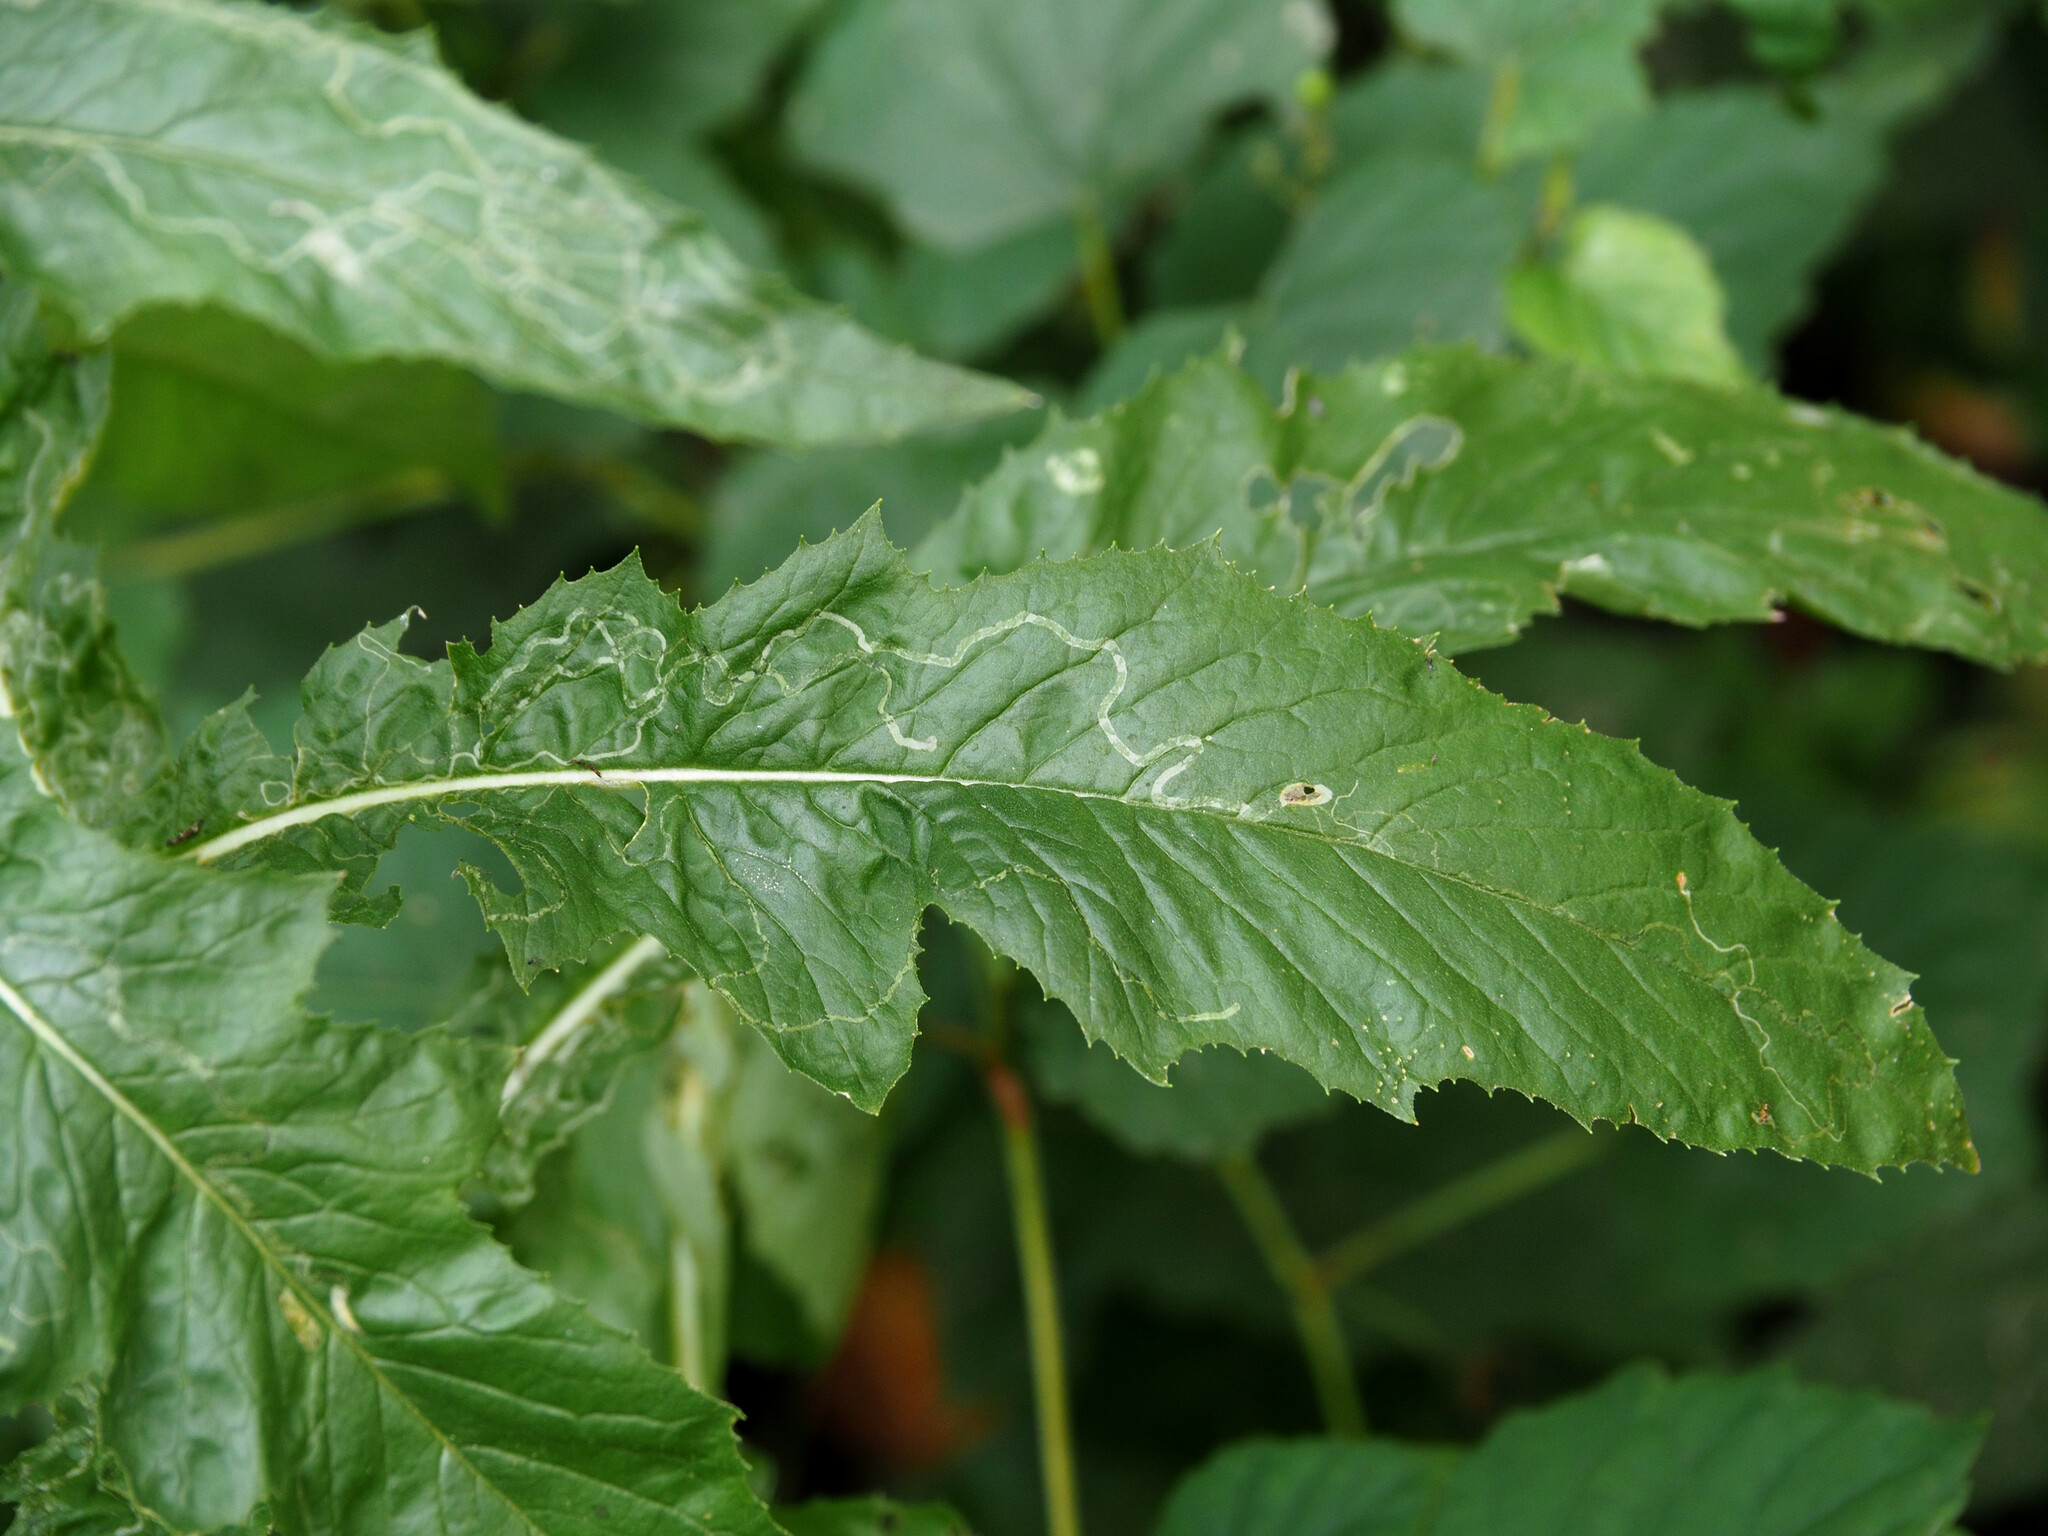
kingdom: Animalia
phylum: Arthropoda
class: Insecta
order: Lepidoptera
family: Gracillariidae
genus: Phyllocnistis
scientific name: Phyllocnistis insignis
